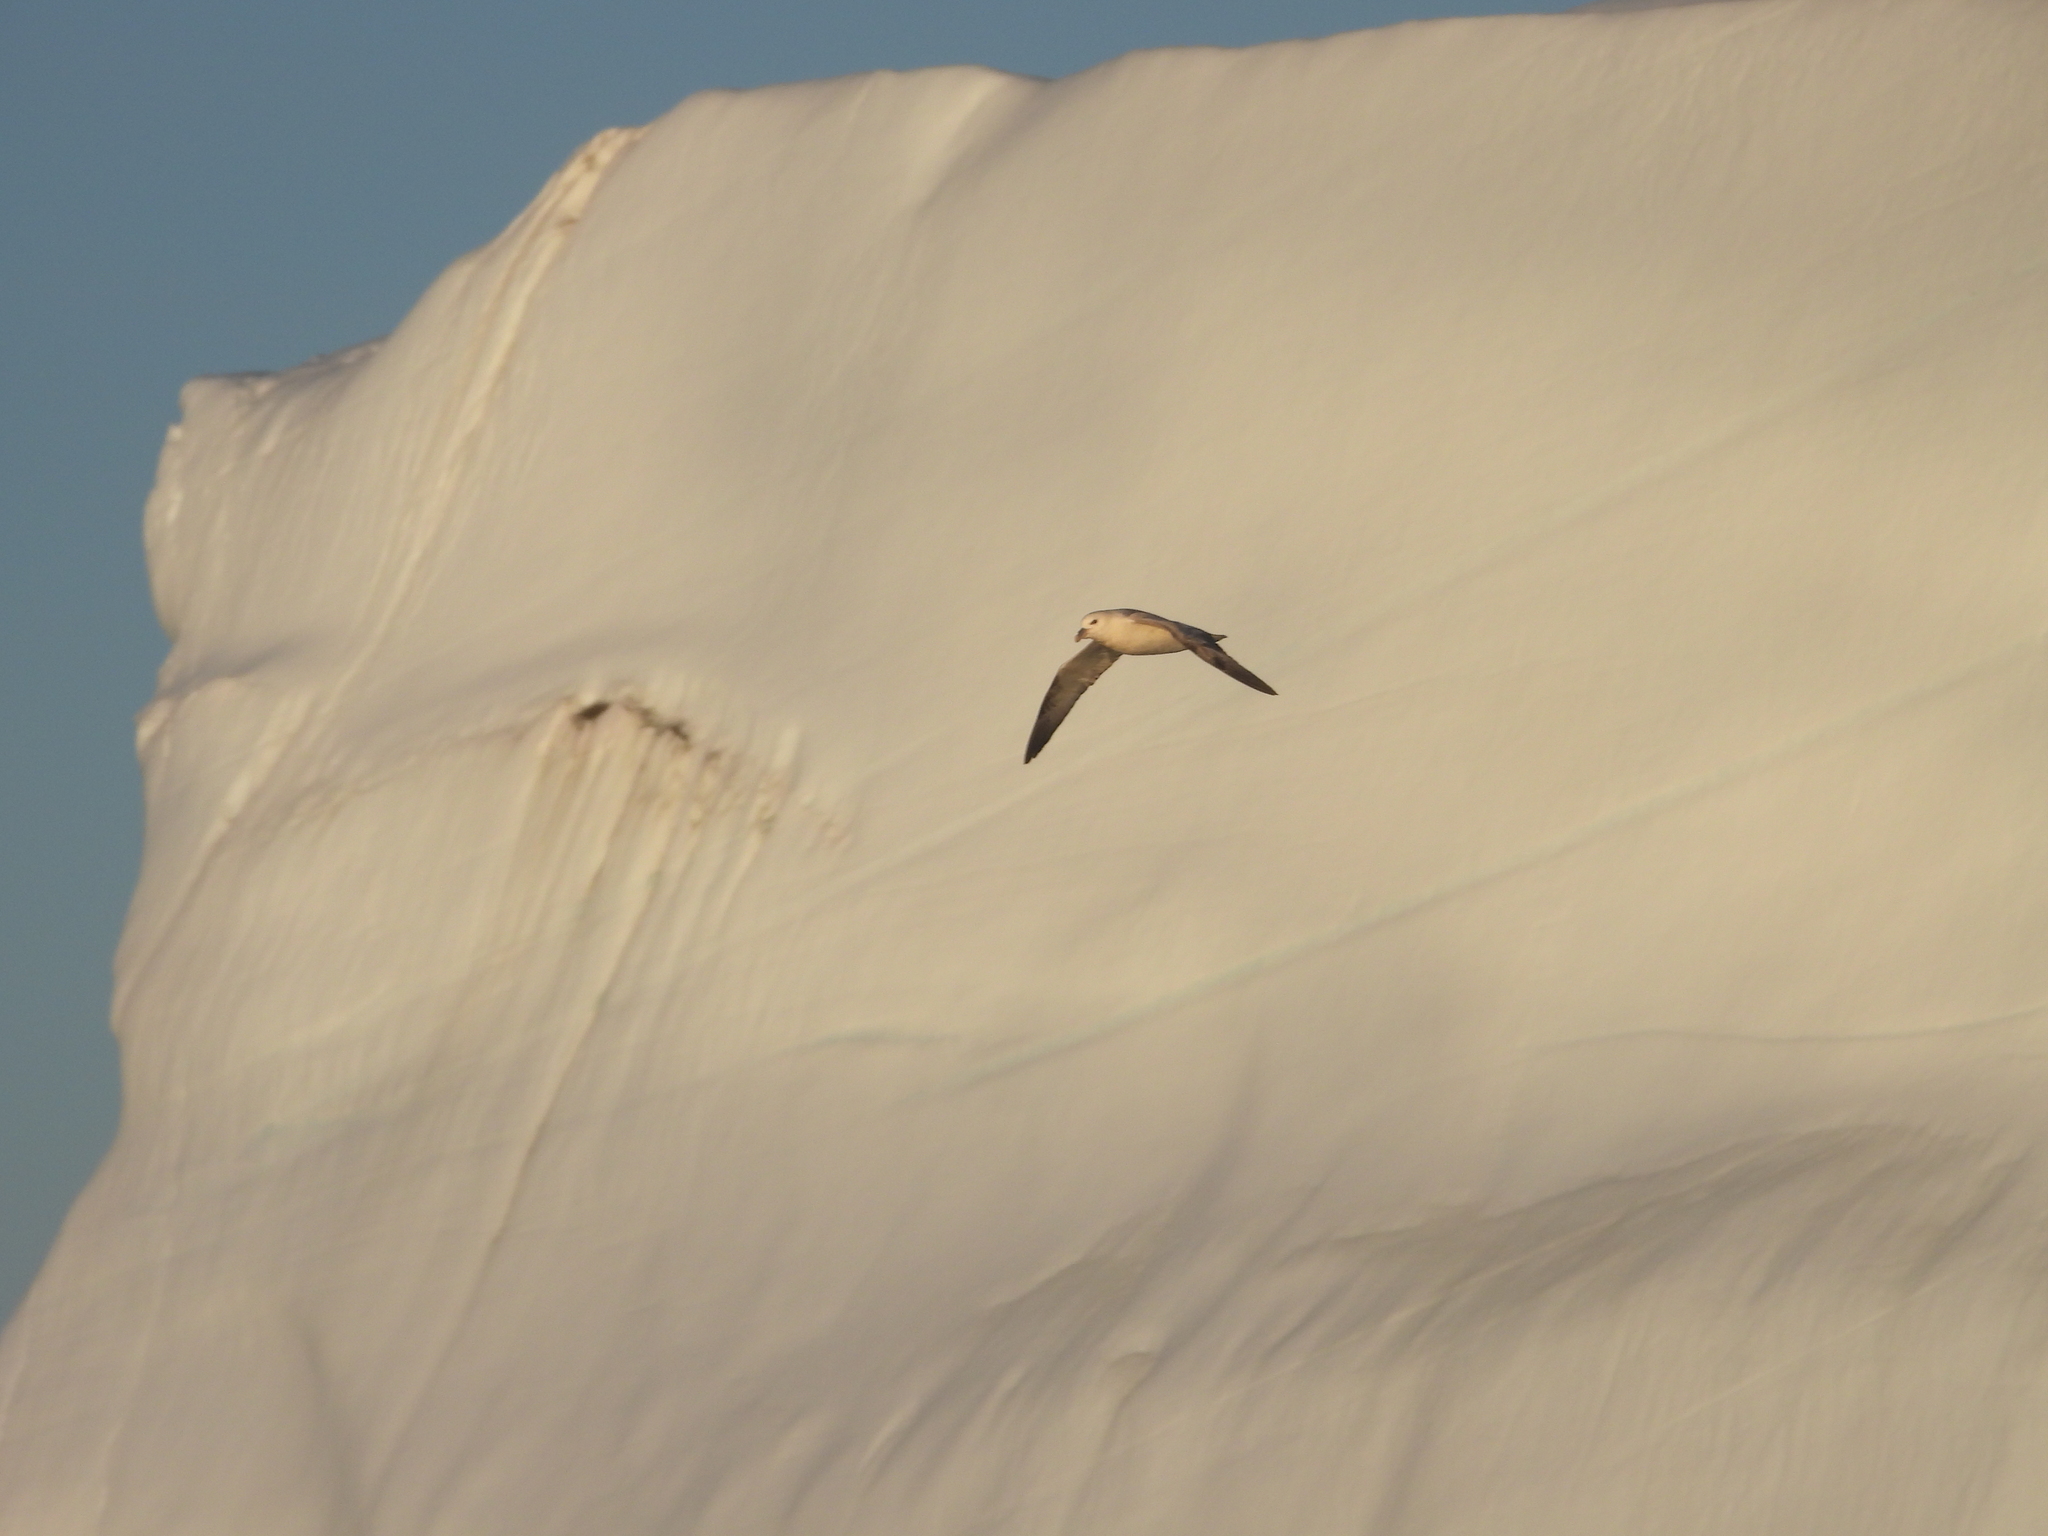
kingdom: Animalia
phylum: Chordata
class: Aves
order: Procellariiformes
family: Procellariidae
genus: Fulmarus
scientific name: Fulmarus glacialis
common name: Northern fulmar
